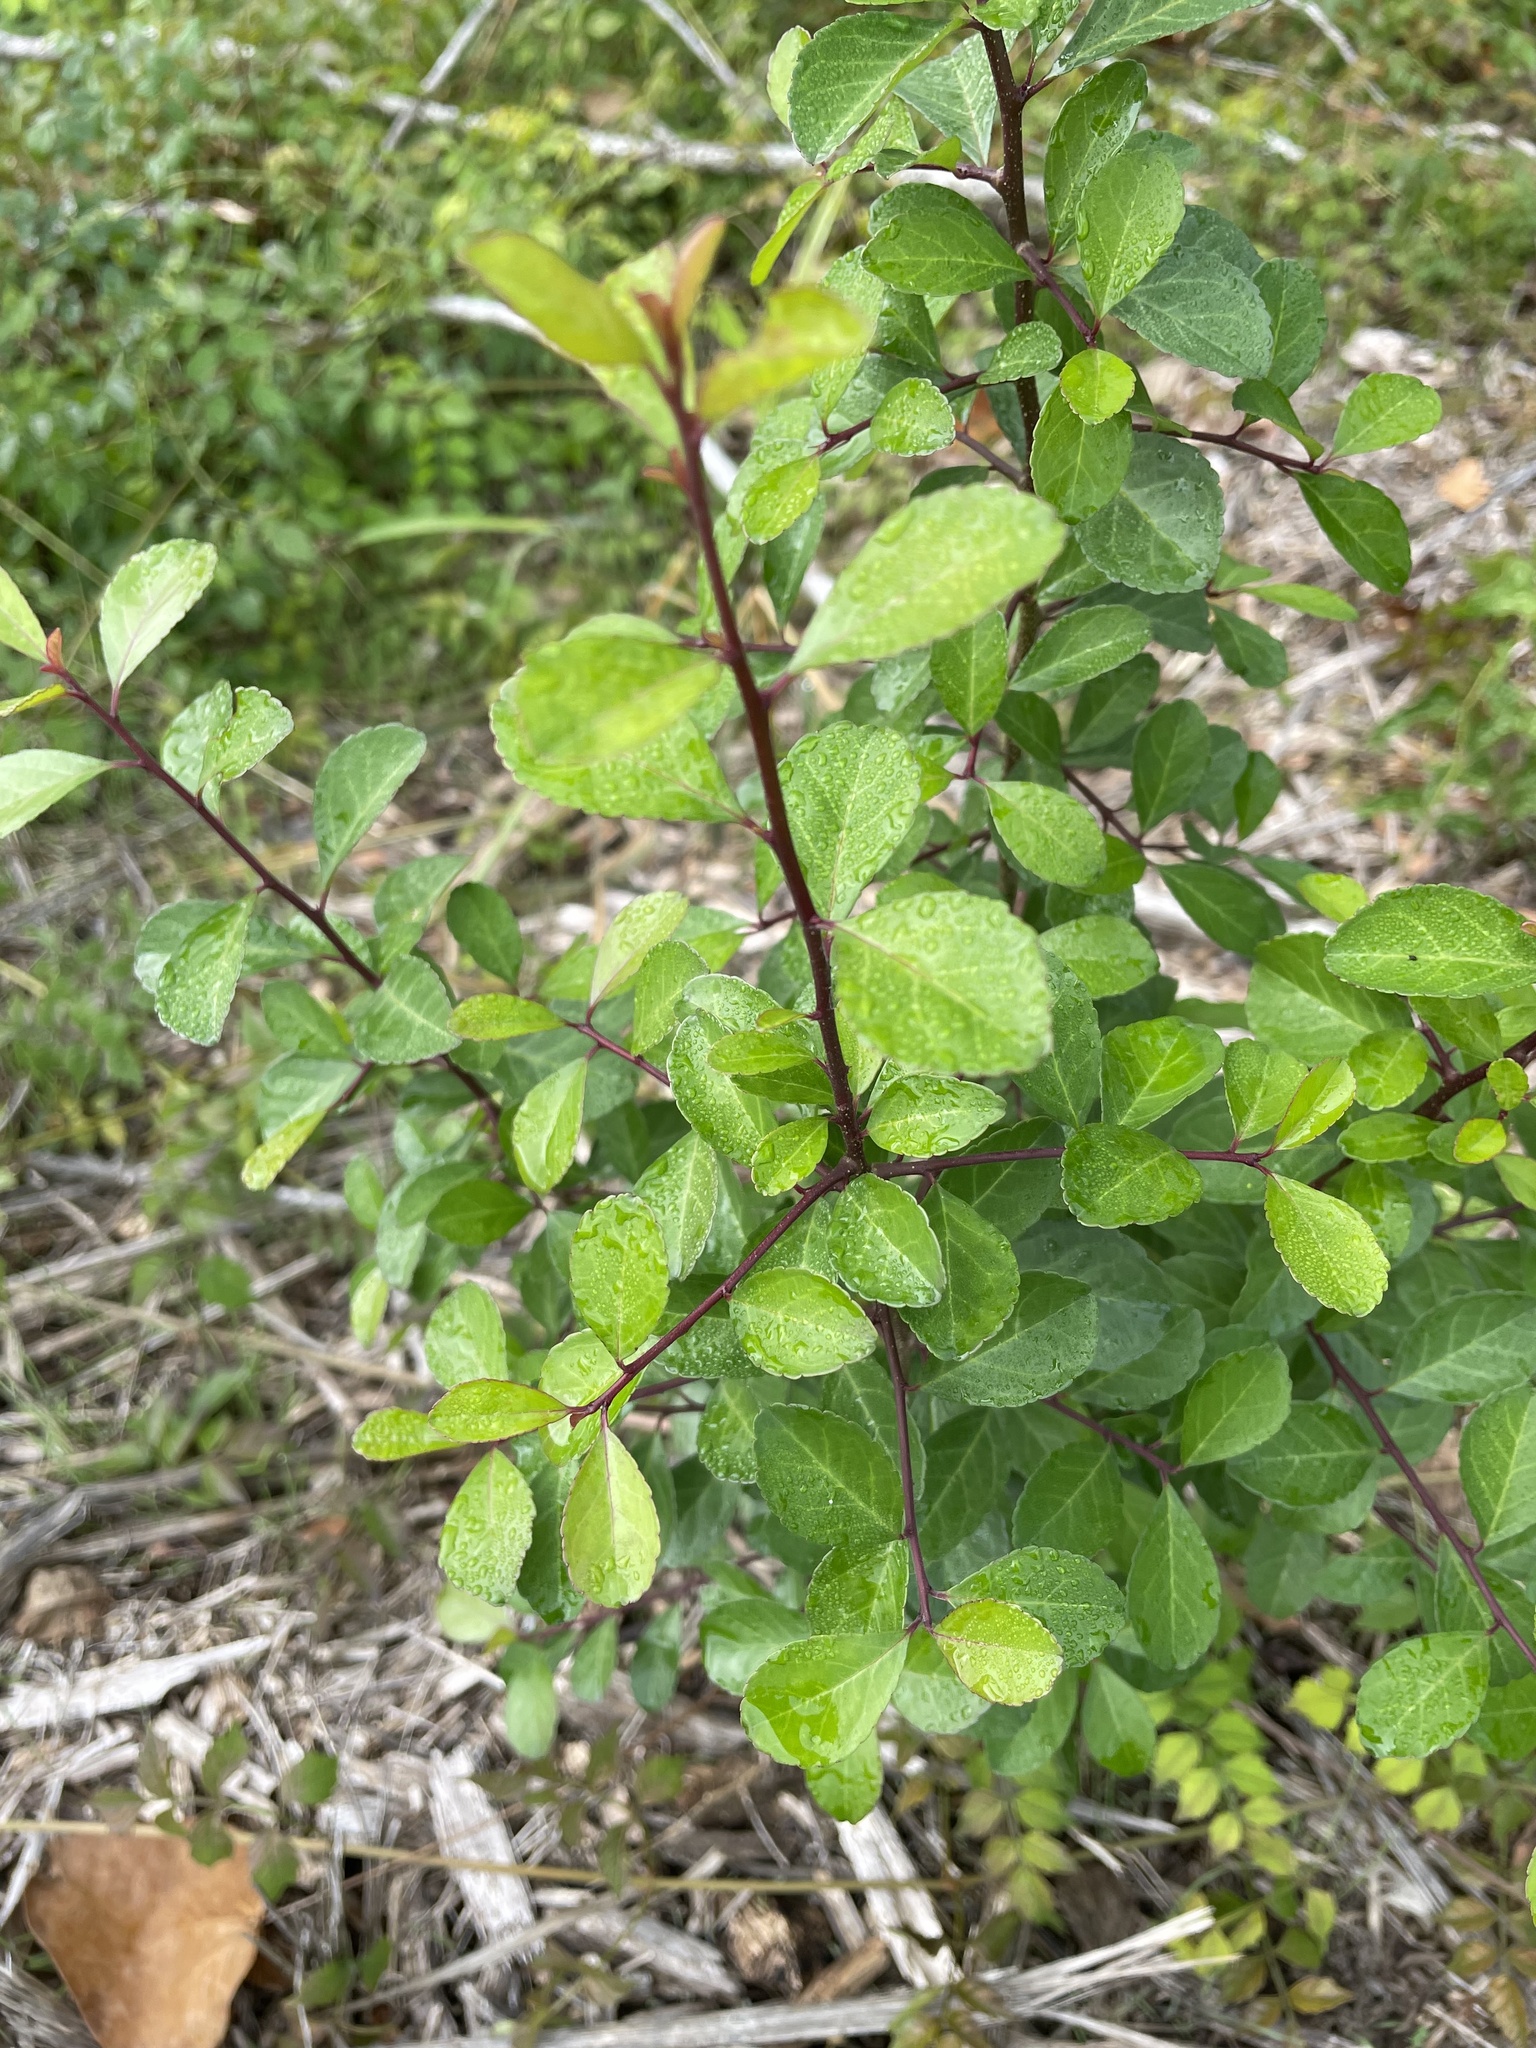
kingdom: Plantae
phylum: Tracheophyta
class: Magnoliopsida
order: Aquifoliales
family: Aquifoliaceae
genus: Ilex
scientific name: Ilex decidua
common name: Possum-haw
